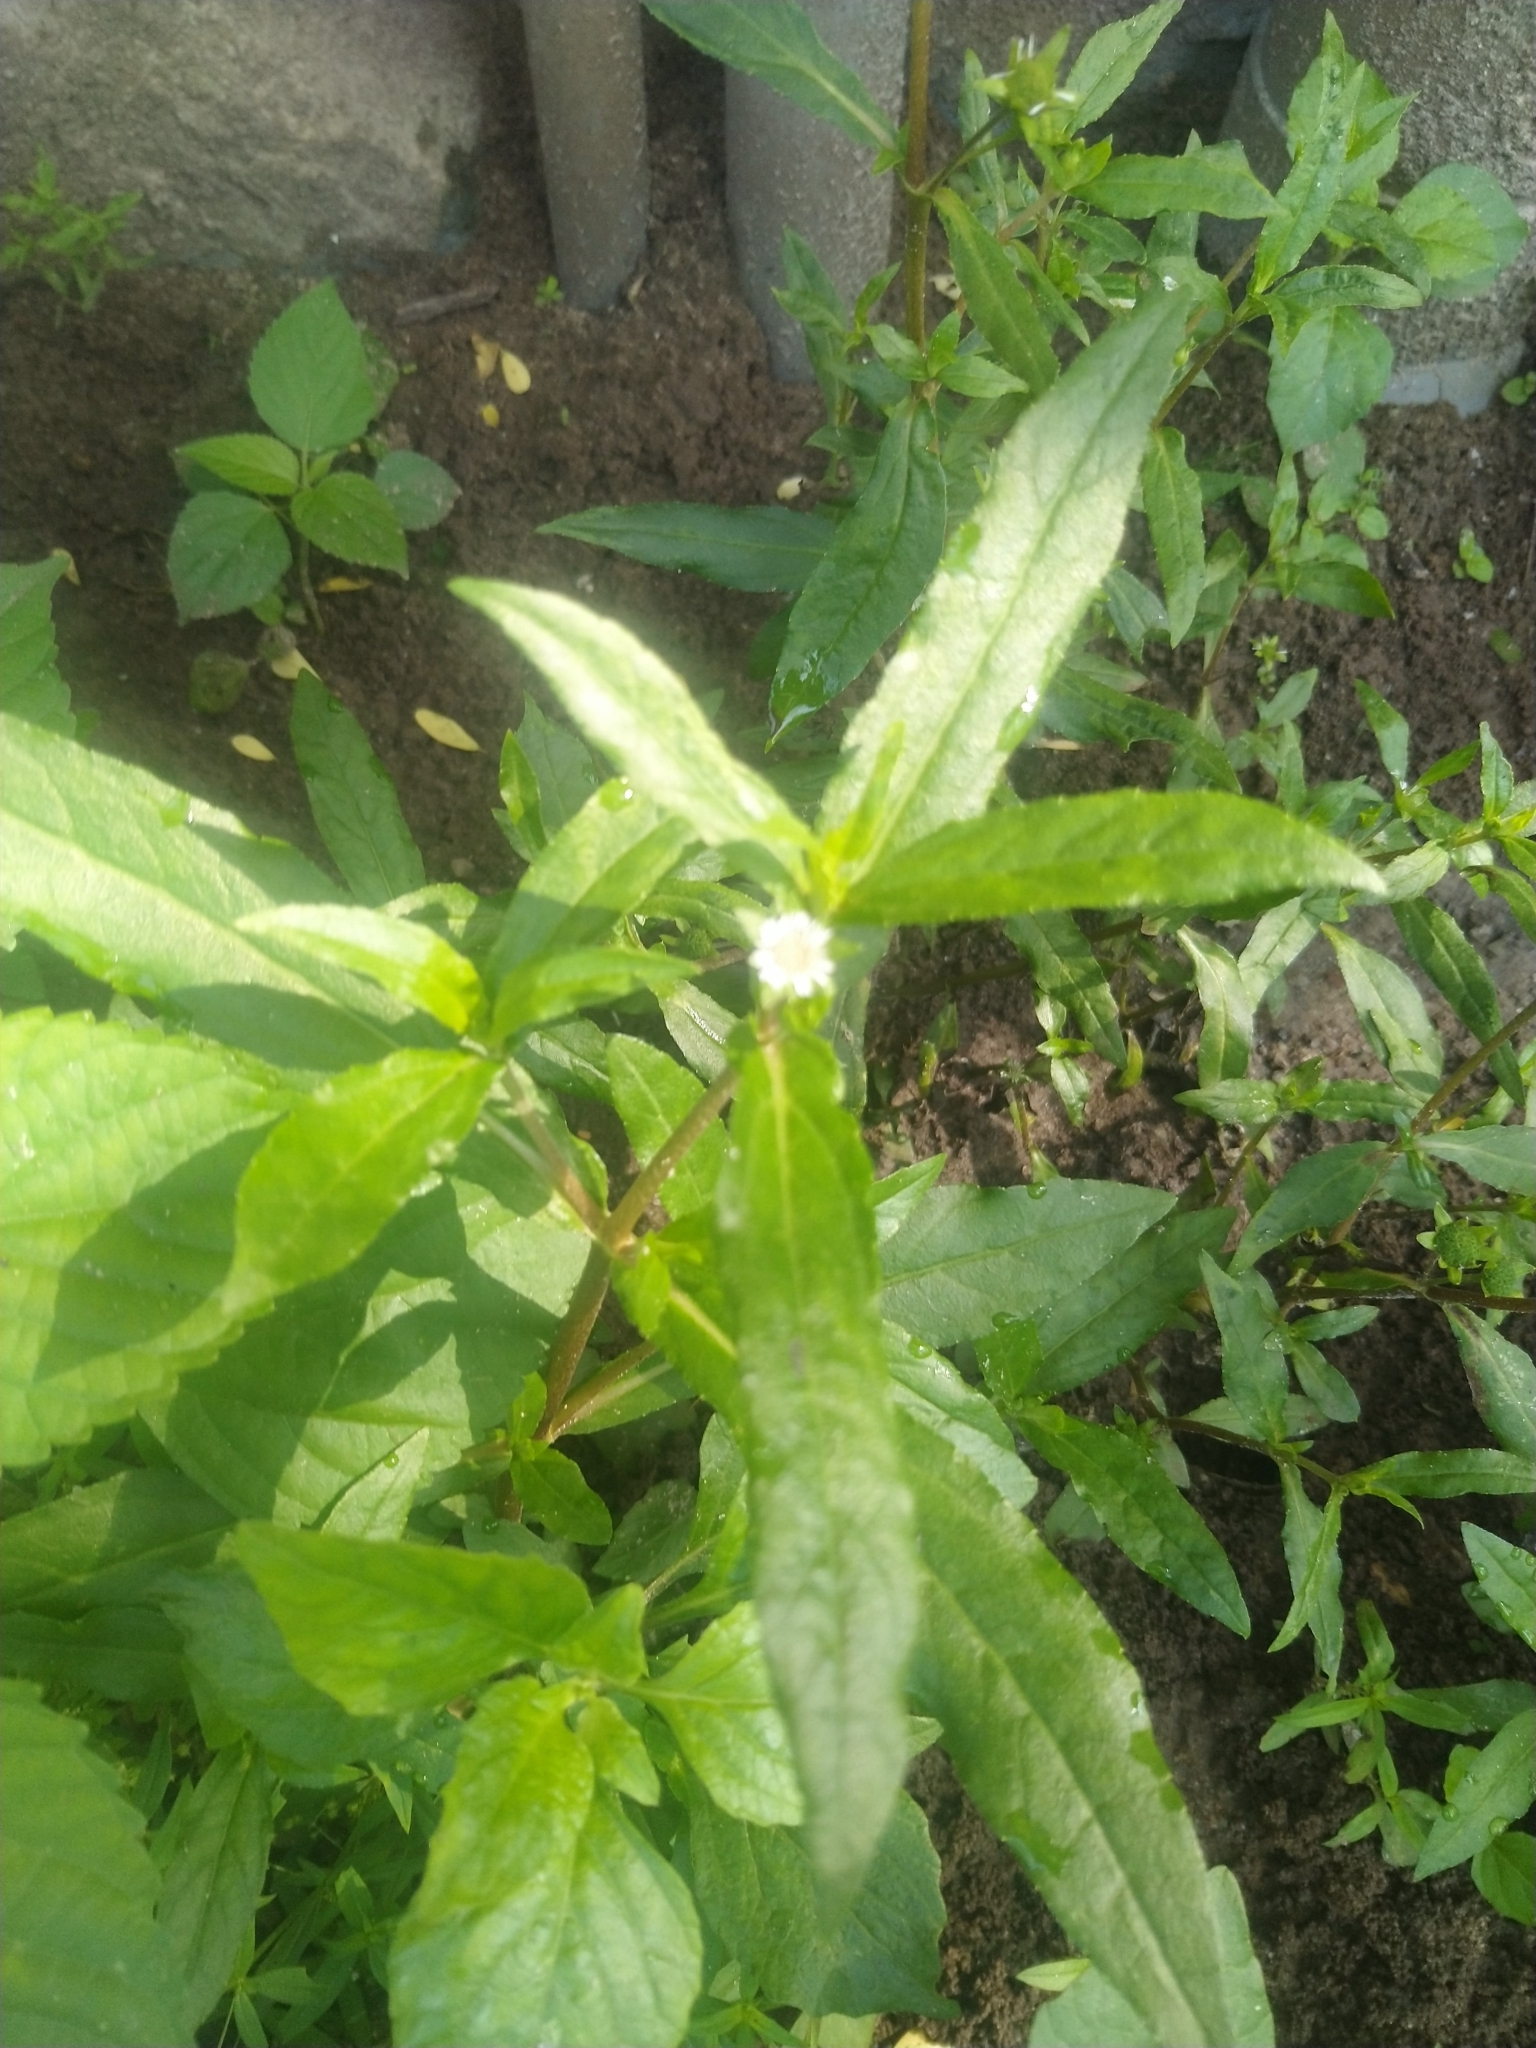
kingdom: Plantae
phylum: Tracheophyta
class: Magnoliopsida
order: Asterales
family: Asteraceae
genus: Eclipta
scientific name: Eclipta prostrata
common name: False daisy
